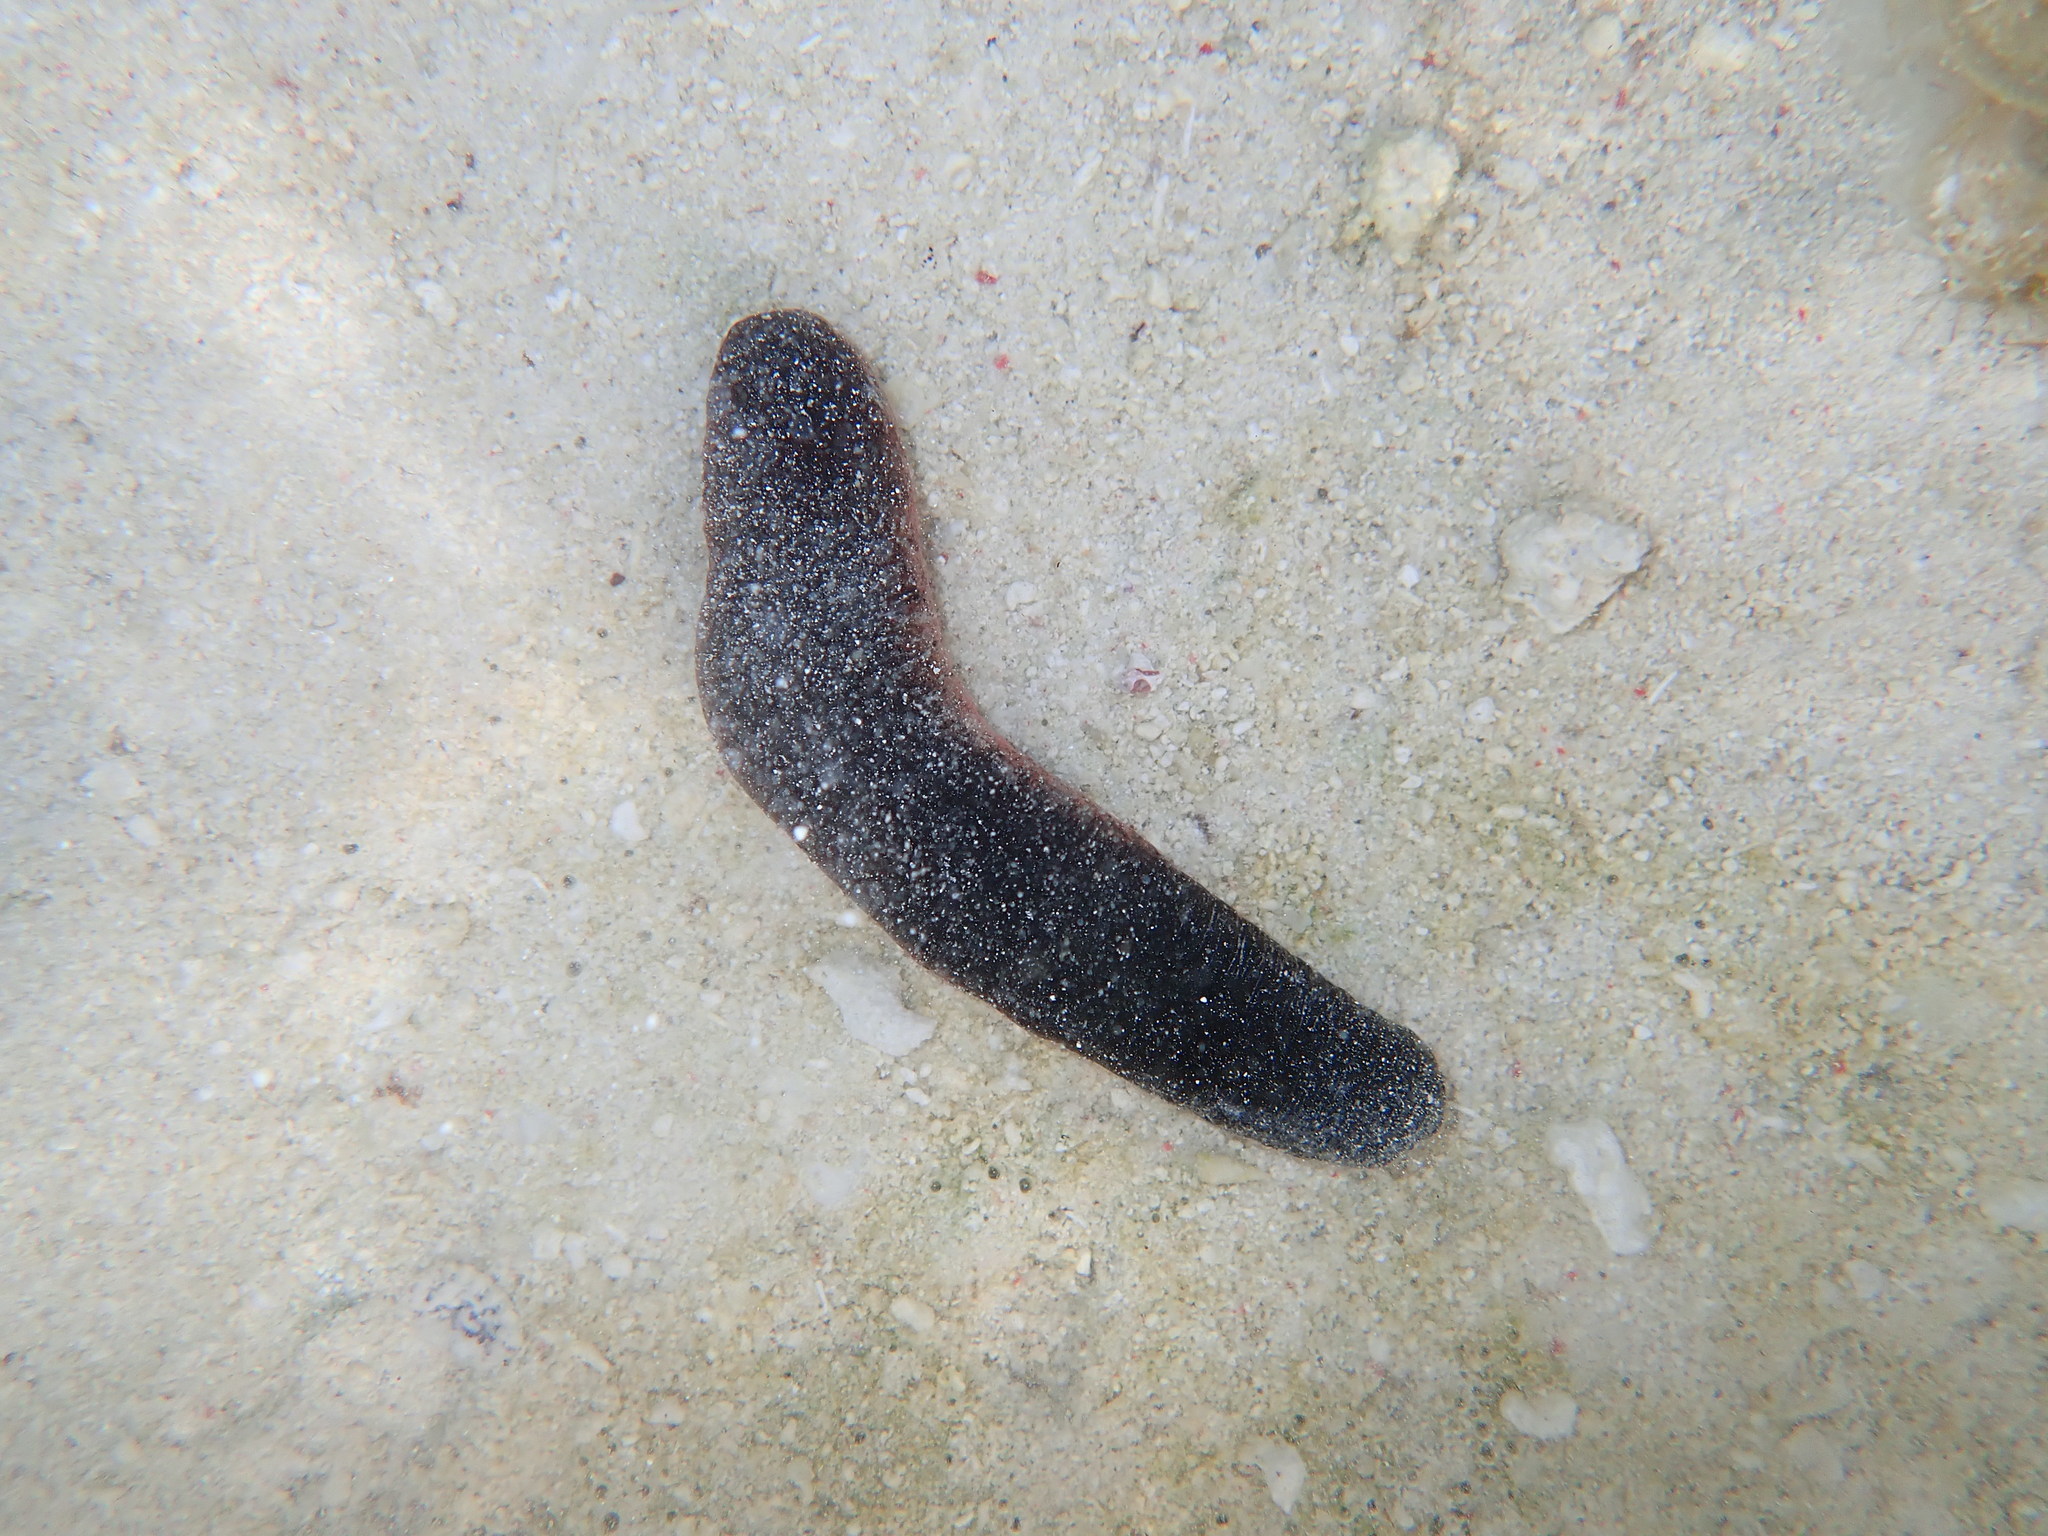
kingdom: Animalia
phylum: Echinodermata
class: Holothuroidea
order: Holothuriida
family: Holothuriidae
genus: Holothuria
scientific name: Holothuria edulis
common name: Pinkfish
